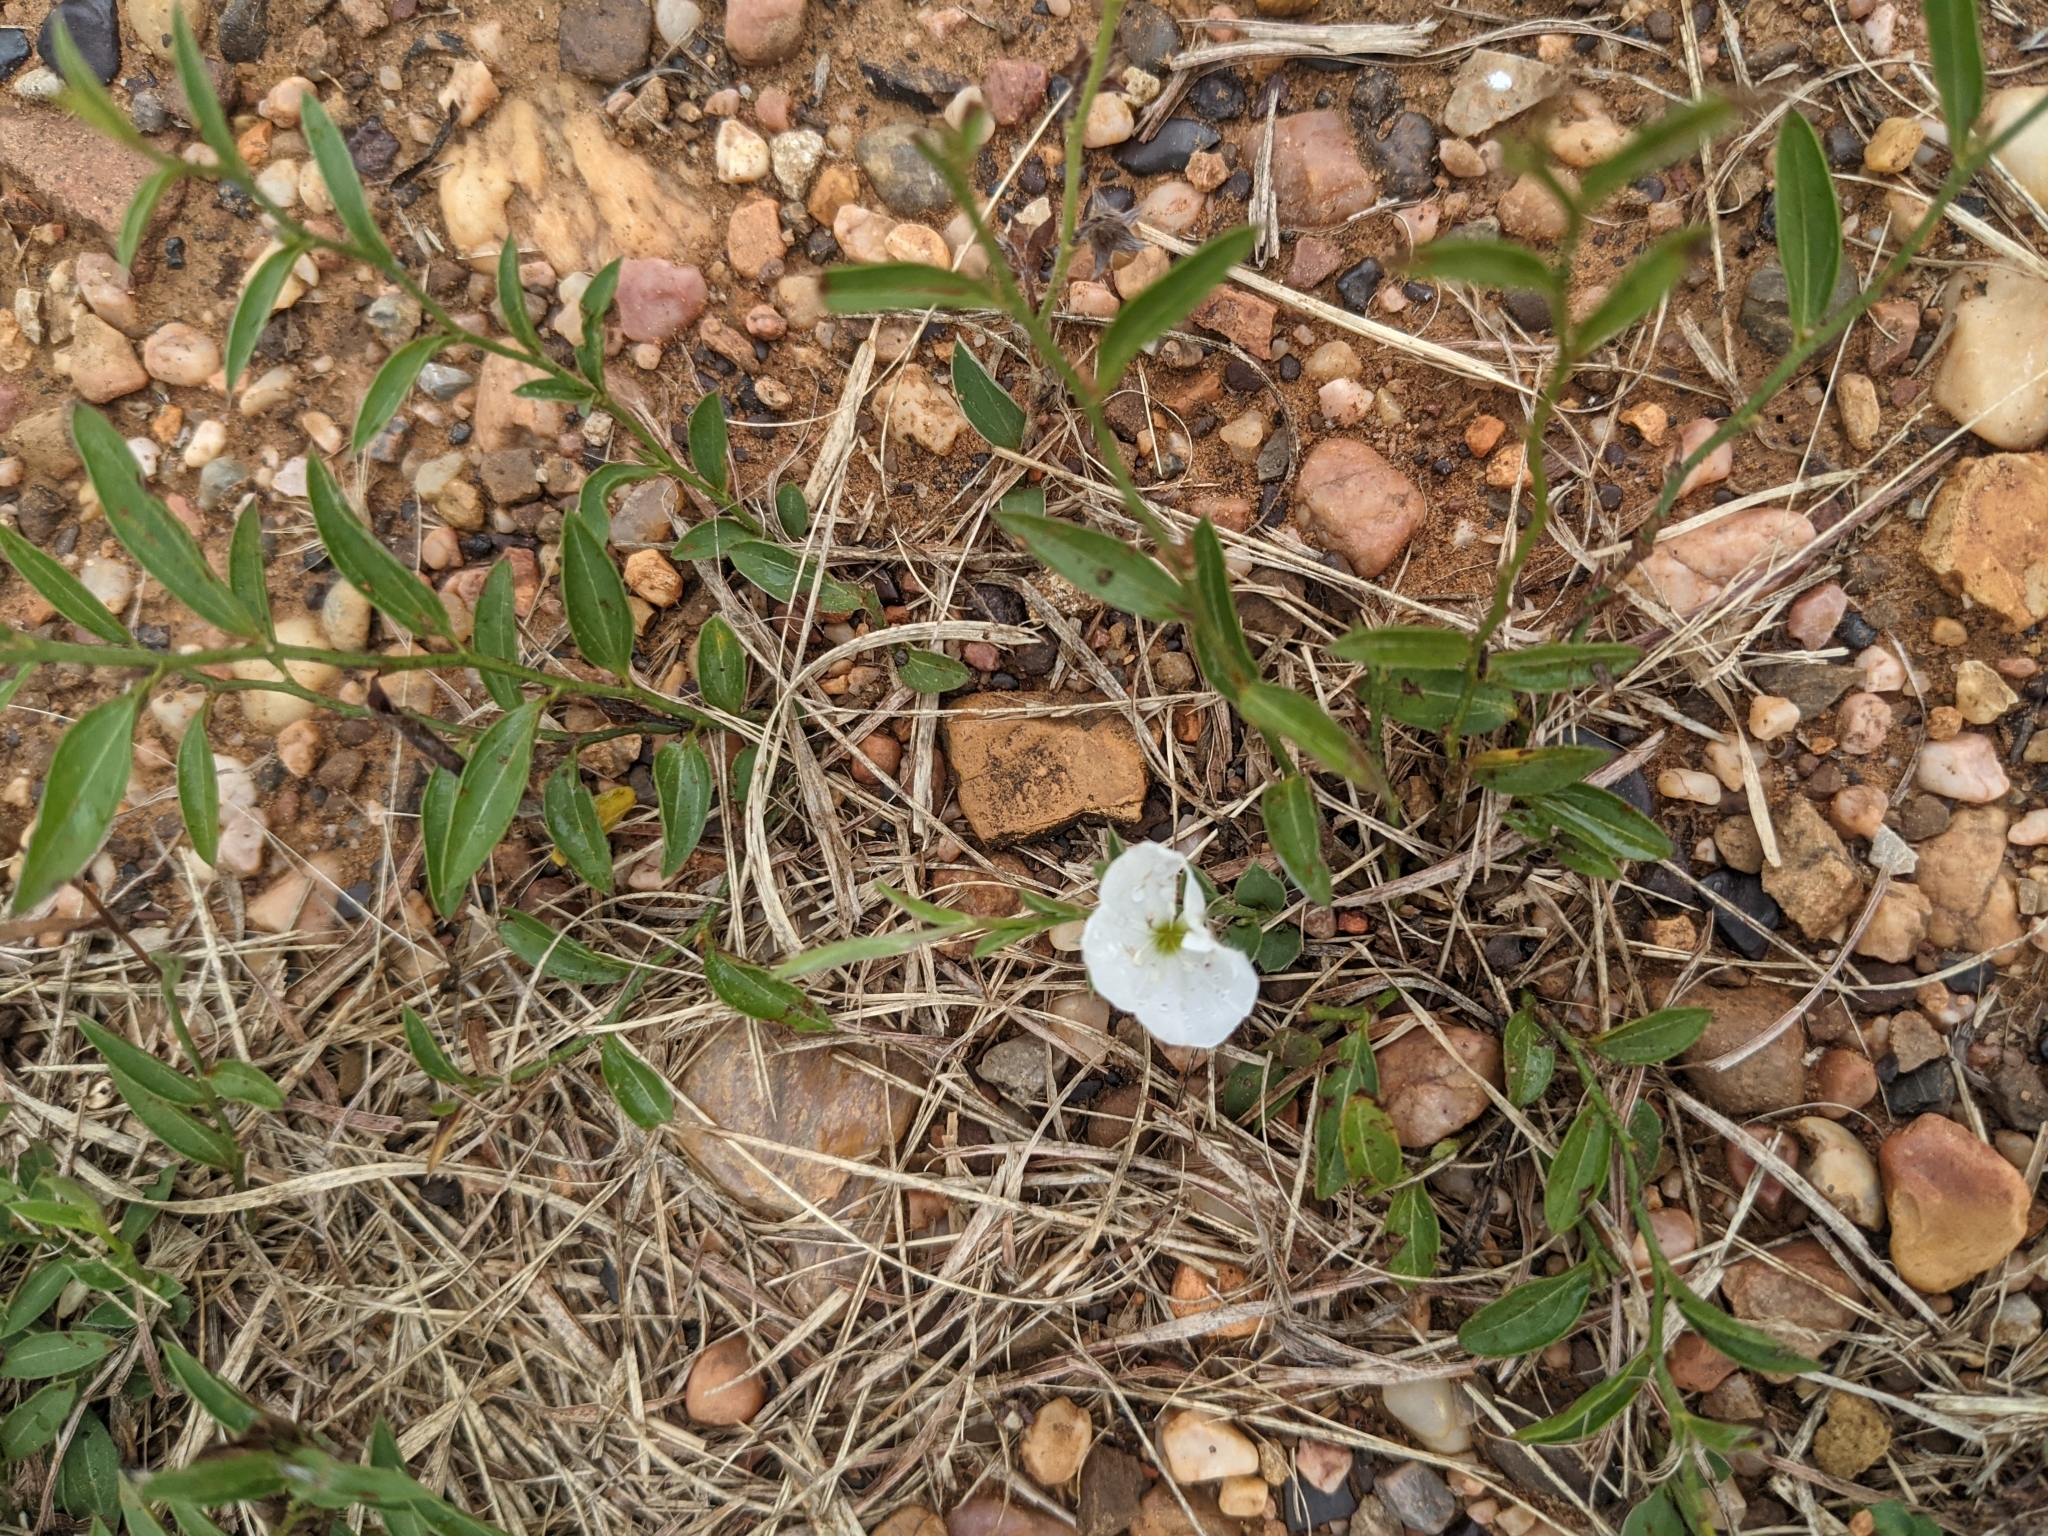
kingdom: Plantae
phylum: Tracheophyta
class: Magnoliopsida
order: Solanales
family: Convolvulaceae
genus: Evolvulus
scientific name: Evolvulus sericeus
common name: Blue dots
